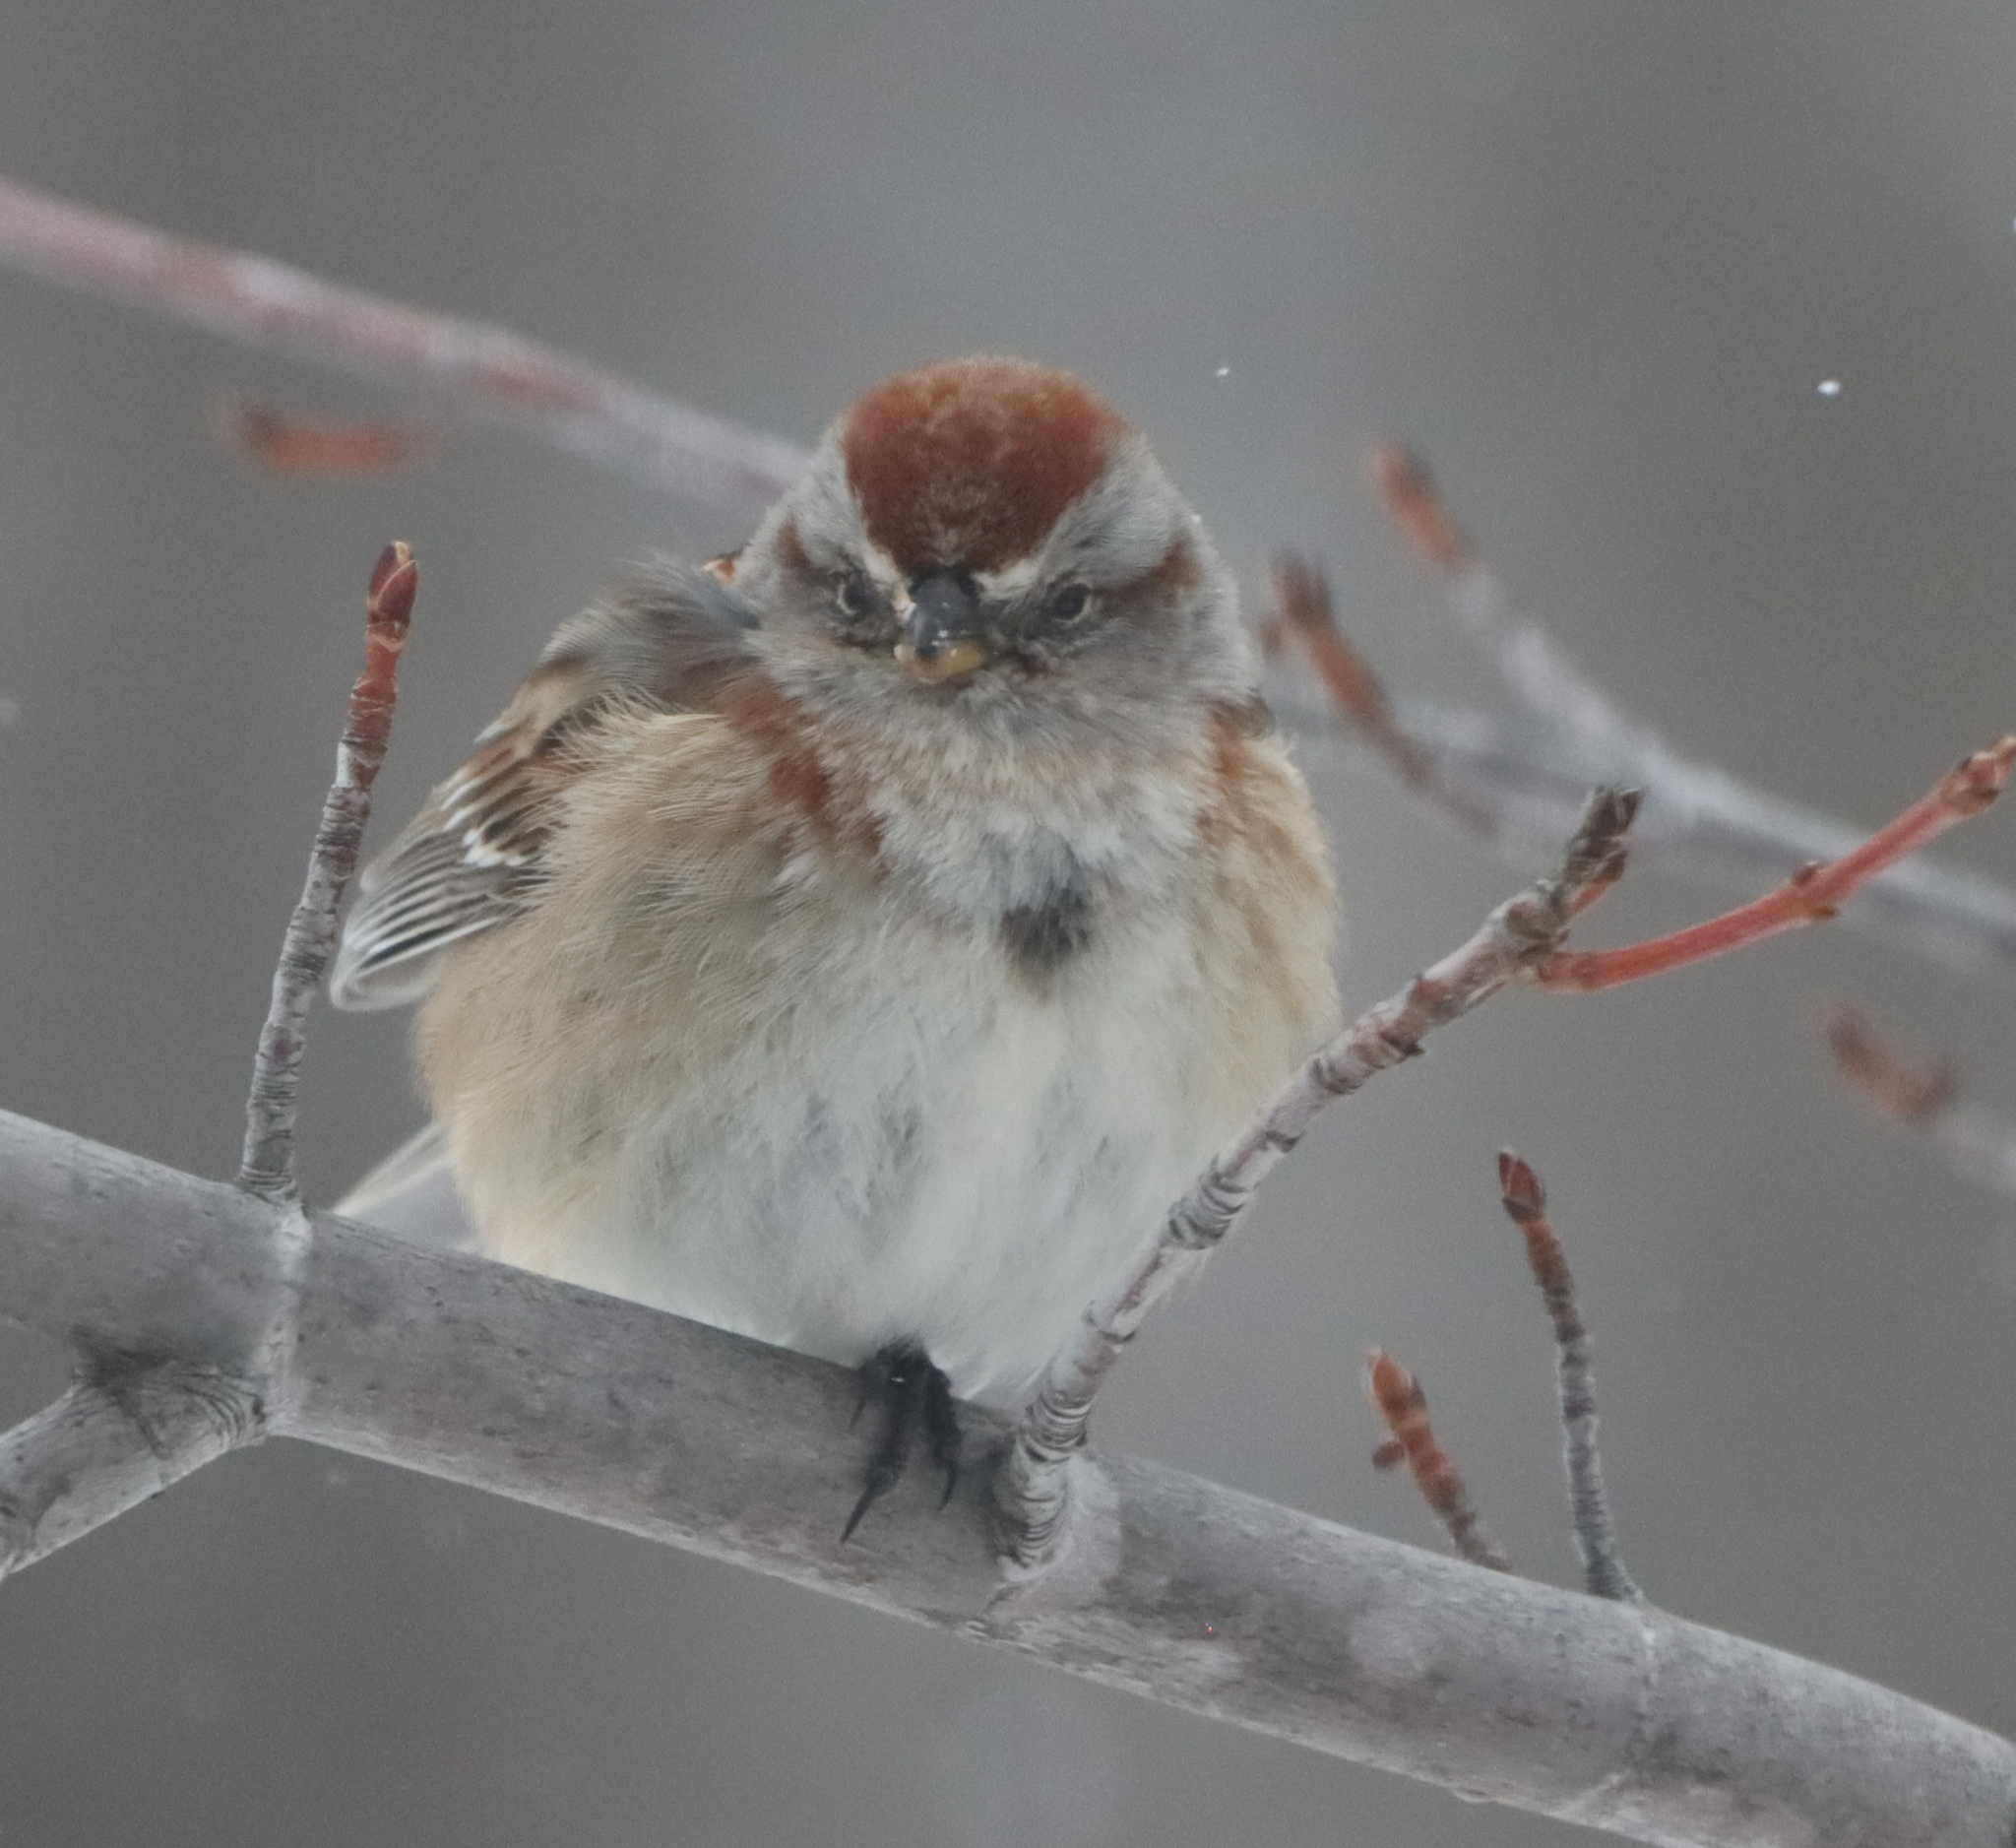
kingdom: Animalia
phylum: Chordata
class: Aves
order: Passeriformes
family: Passerellidae
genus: Spizelloides
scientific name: Spizelloides arborea
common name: American tree sparrow
